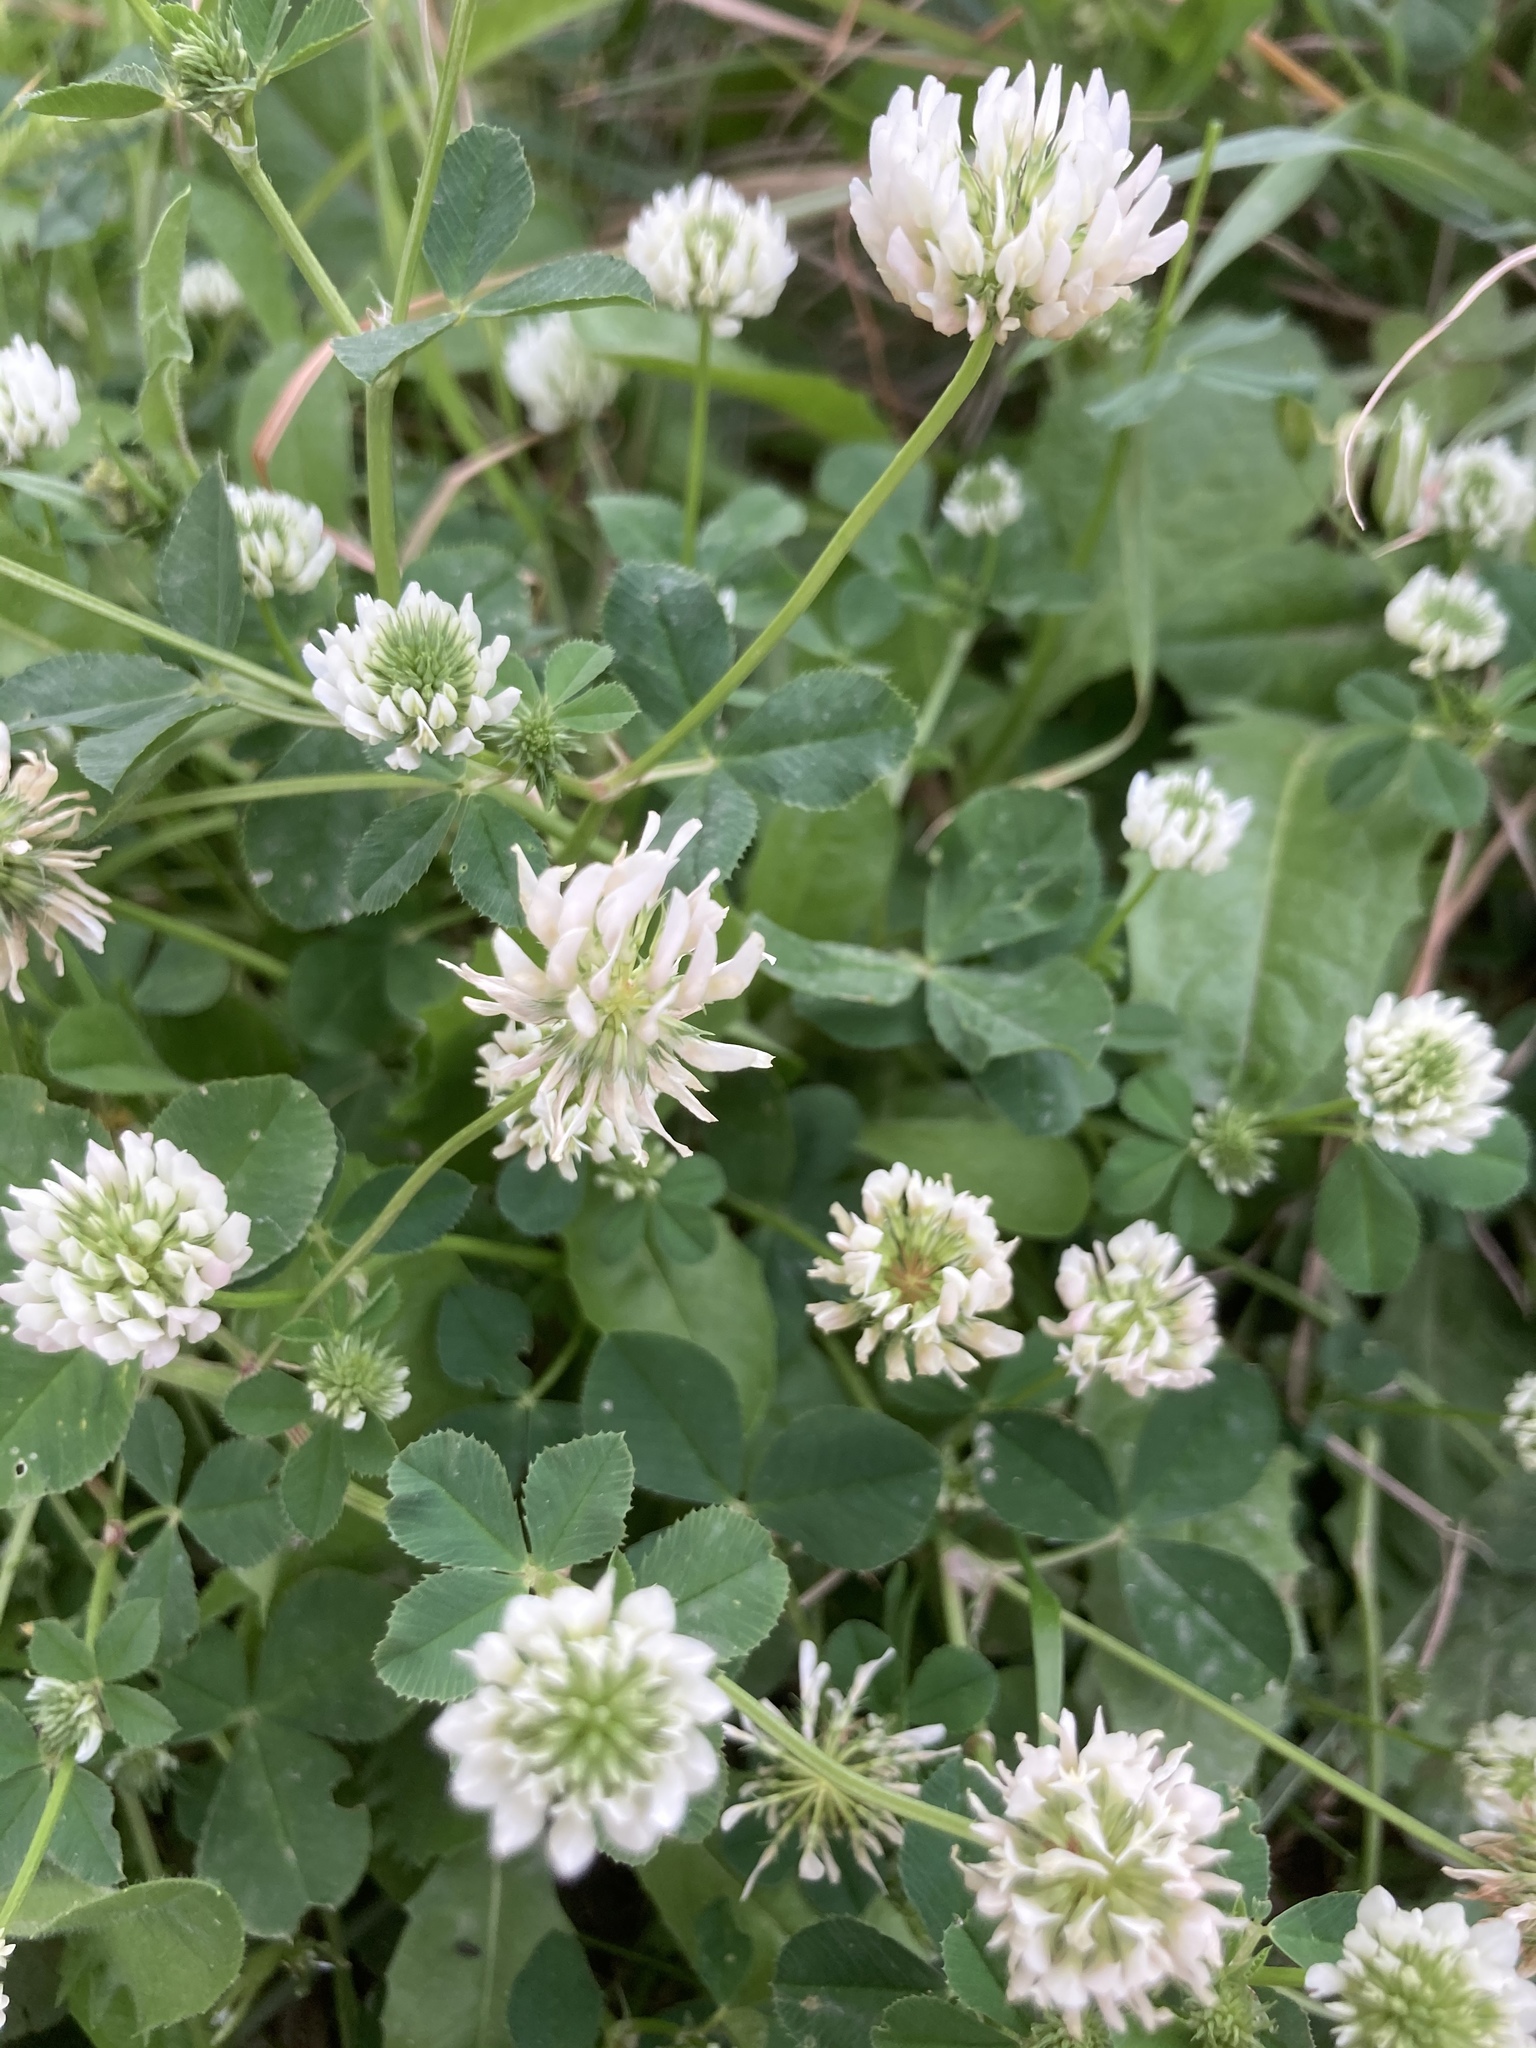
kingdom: Plantae
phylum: Tracheophyta
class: Magnoliopsida
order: Fabales
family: Fabaceae
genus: Trifolium
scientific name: Trifolium nigrescens
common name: Small white clover
